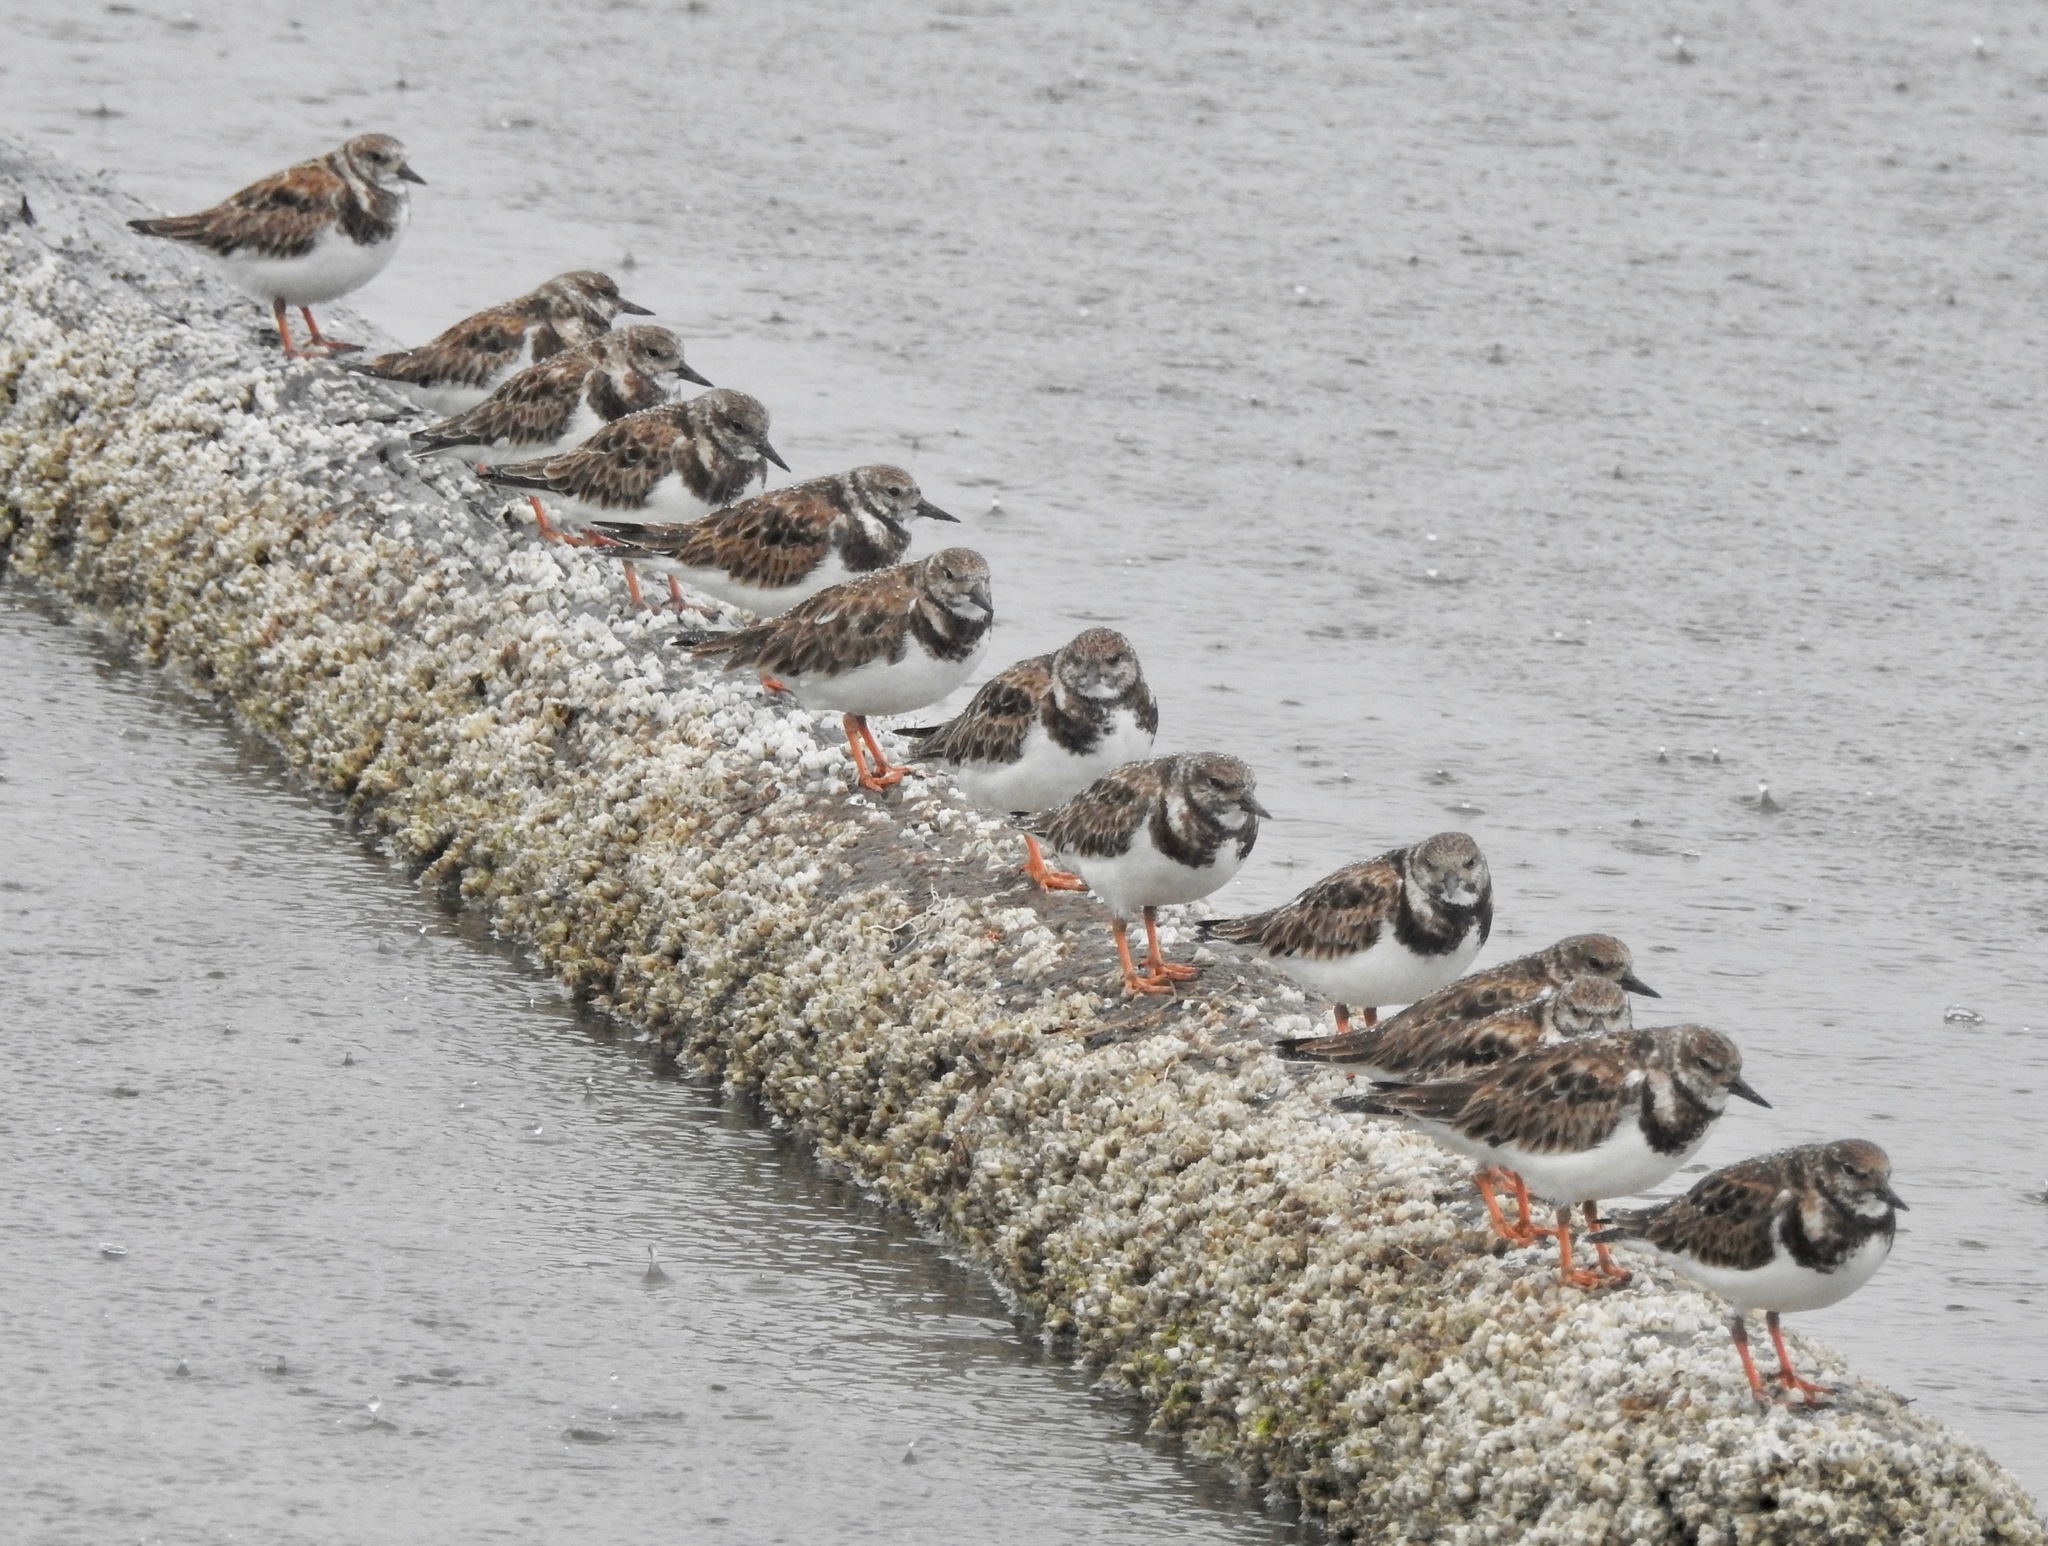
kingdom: Animalia
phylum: Chordata
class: Aves
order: Charadriiformes
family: Scolopacidae
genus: Arenaria
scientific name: Arenaria interpres
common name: Ruddy turnstone
